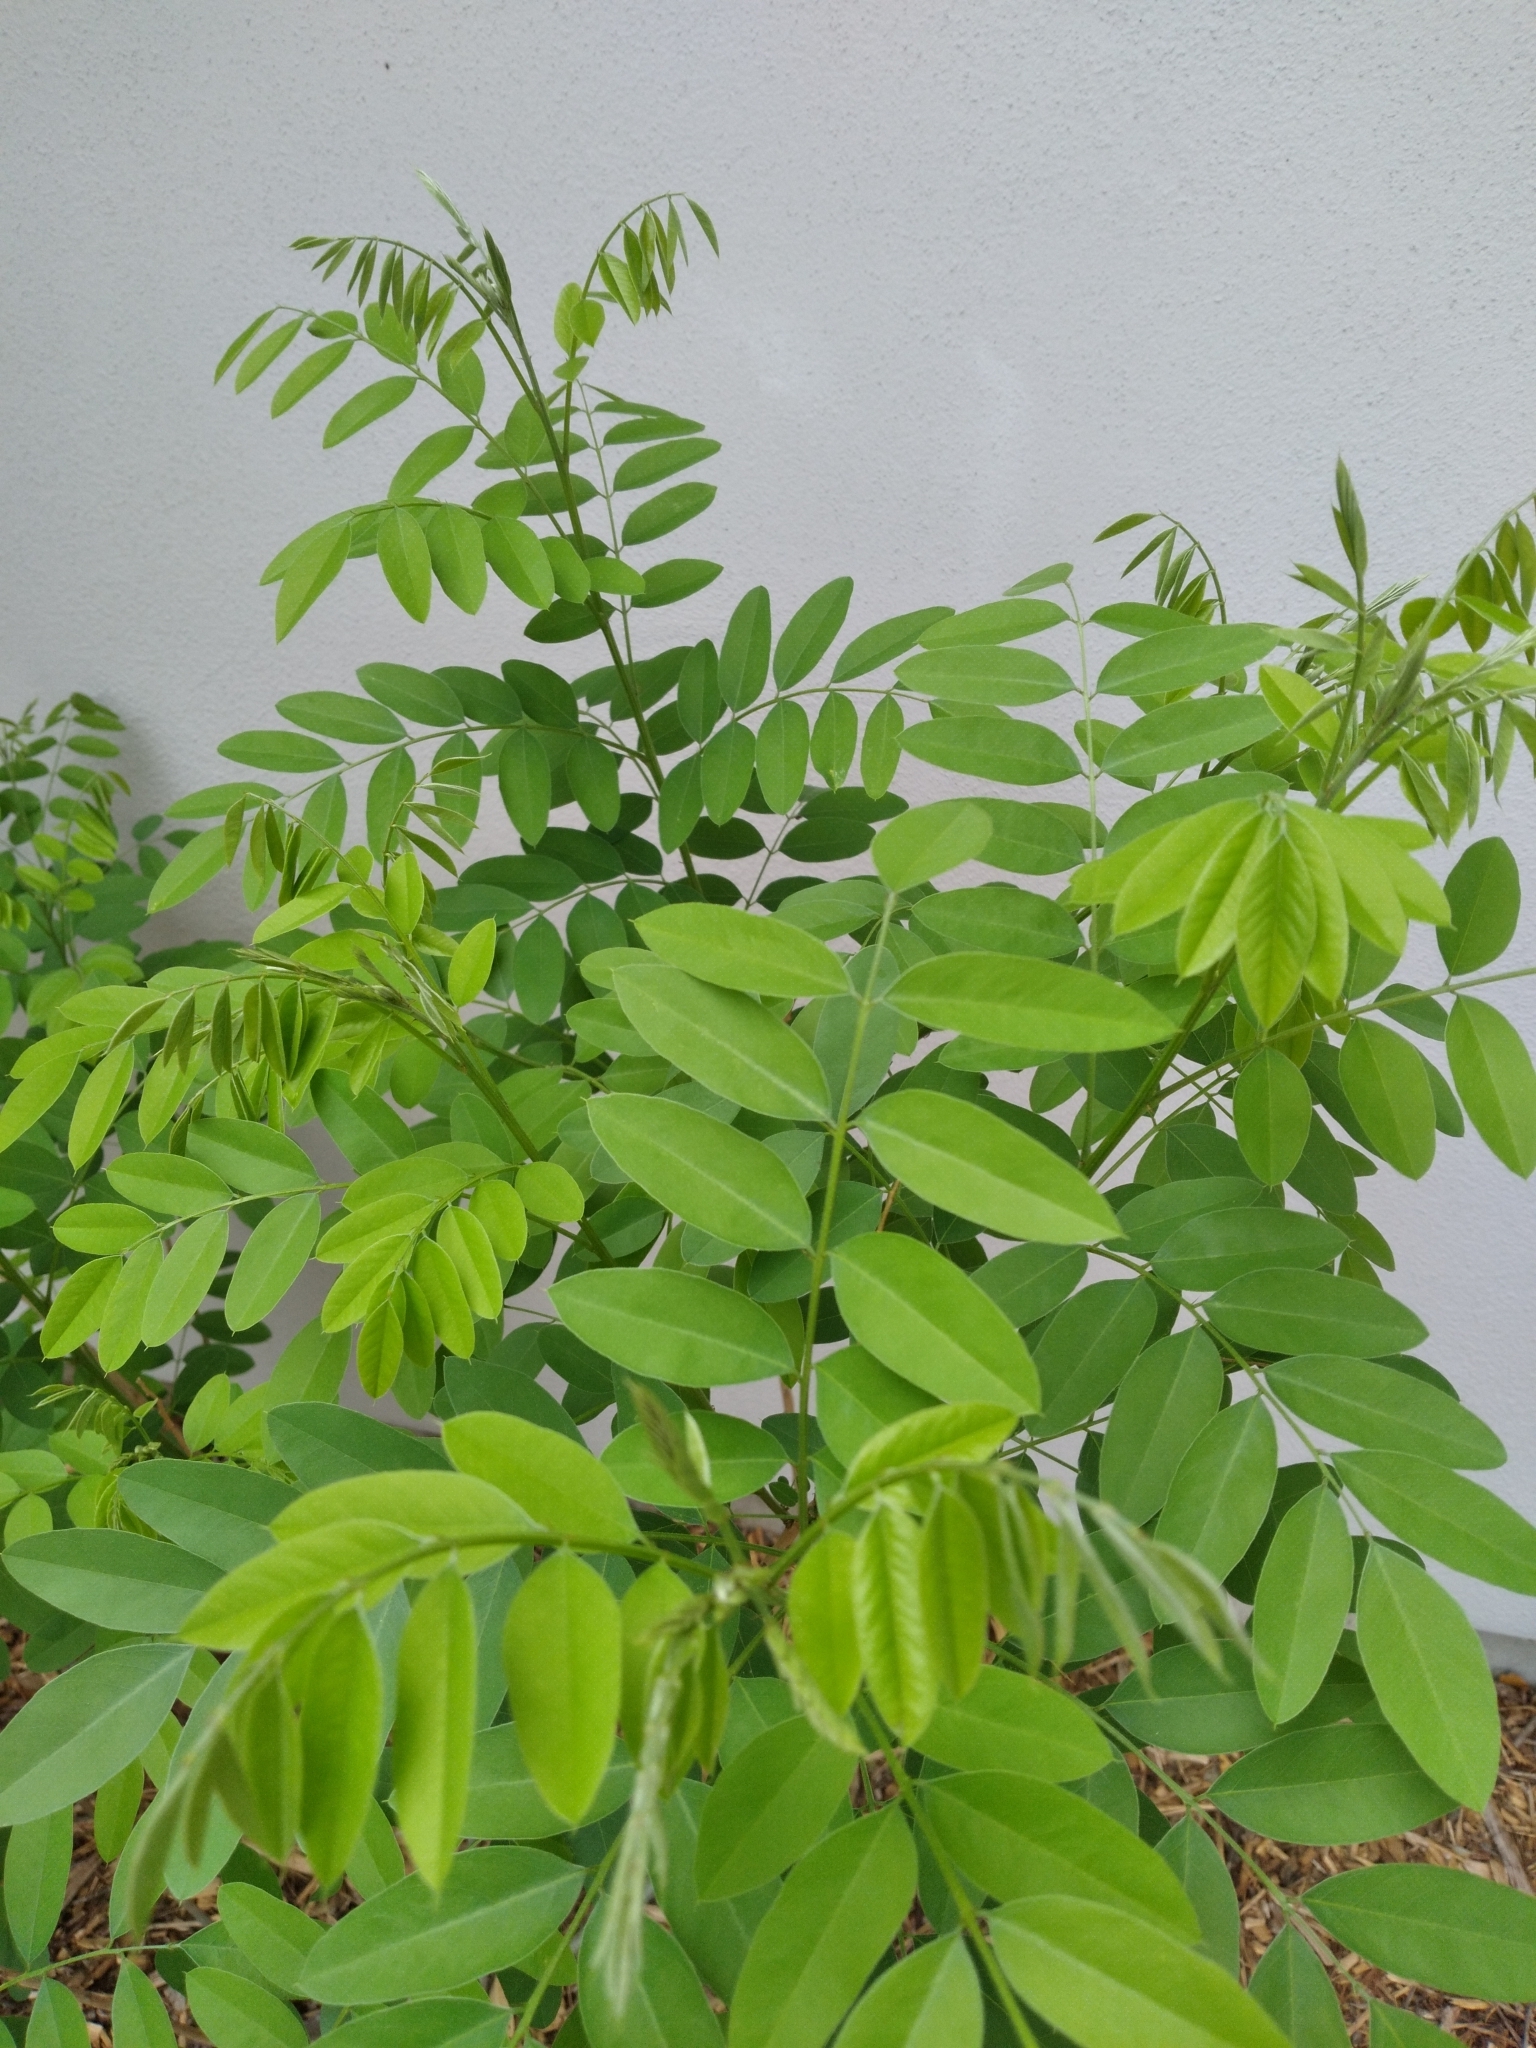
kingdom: Plantae
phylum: Tracheophyta
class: Magnoliopsida
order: Fabales
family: Fabaceae
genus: Styphnolobium
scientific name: Styphnolobium affine
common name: Texas sophora
